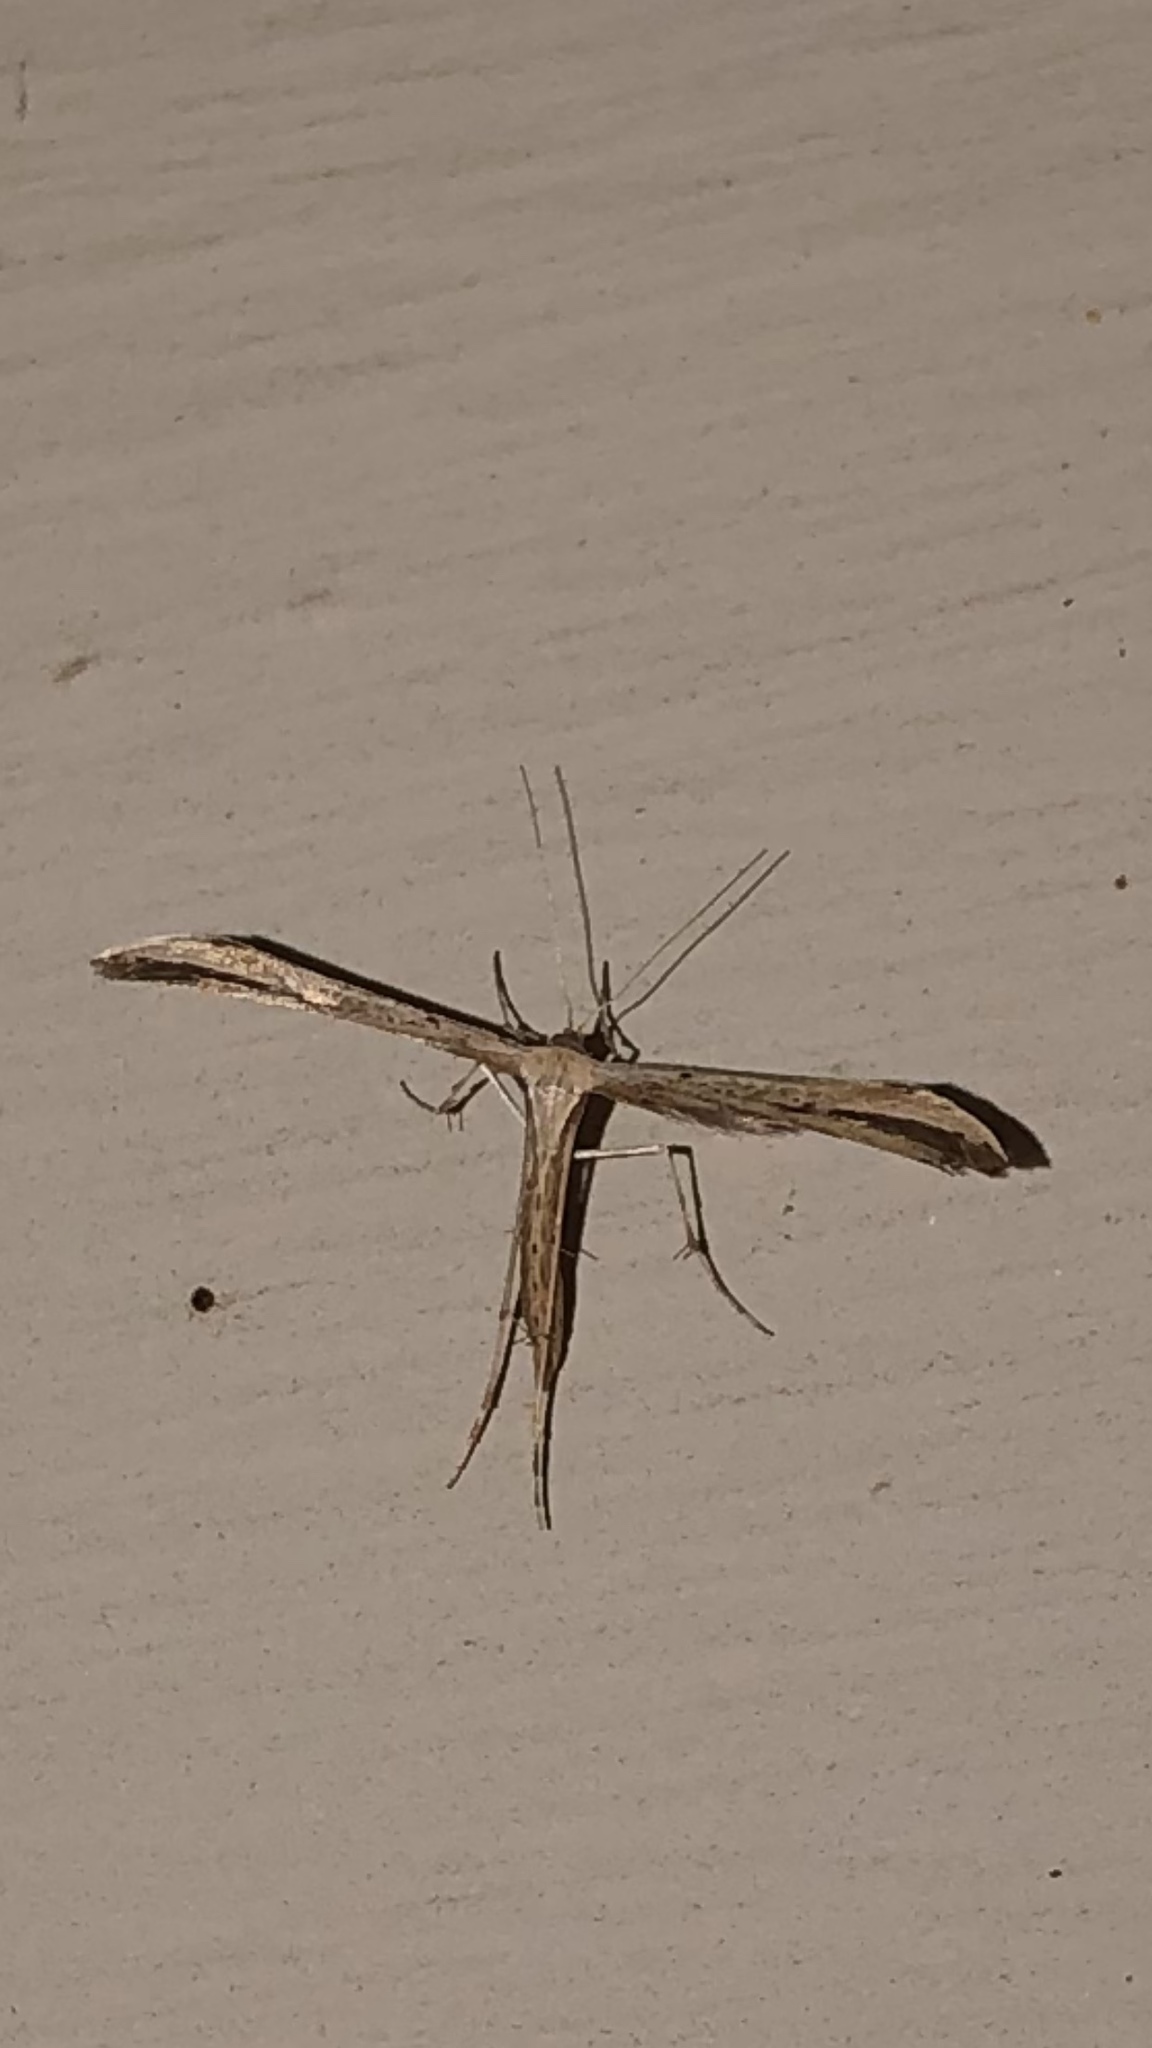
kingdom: Animalia
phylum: Arthropoda
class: Insecta
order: Lepidoptera
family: Pterophoridae
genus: Emmelina
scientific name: Emmelina monodactyla
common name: Common plume
